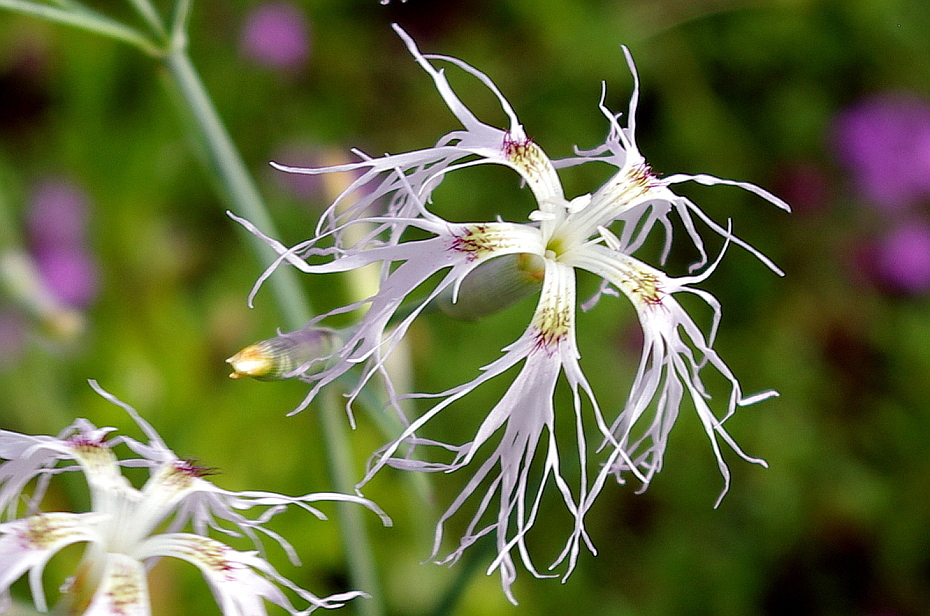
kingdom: Plantae
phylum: Tracheophyta
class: Magnoliopsida
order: Caryophyllales
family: Caryophyllaceae
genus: Dianthus
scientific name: Dianthus superbus
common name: Fringed pink
